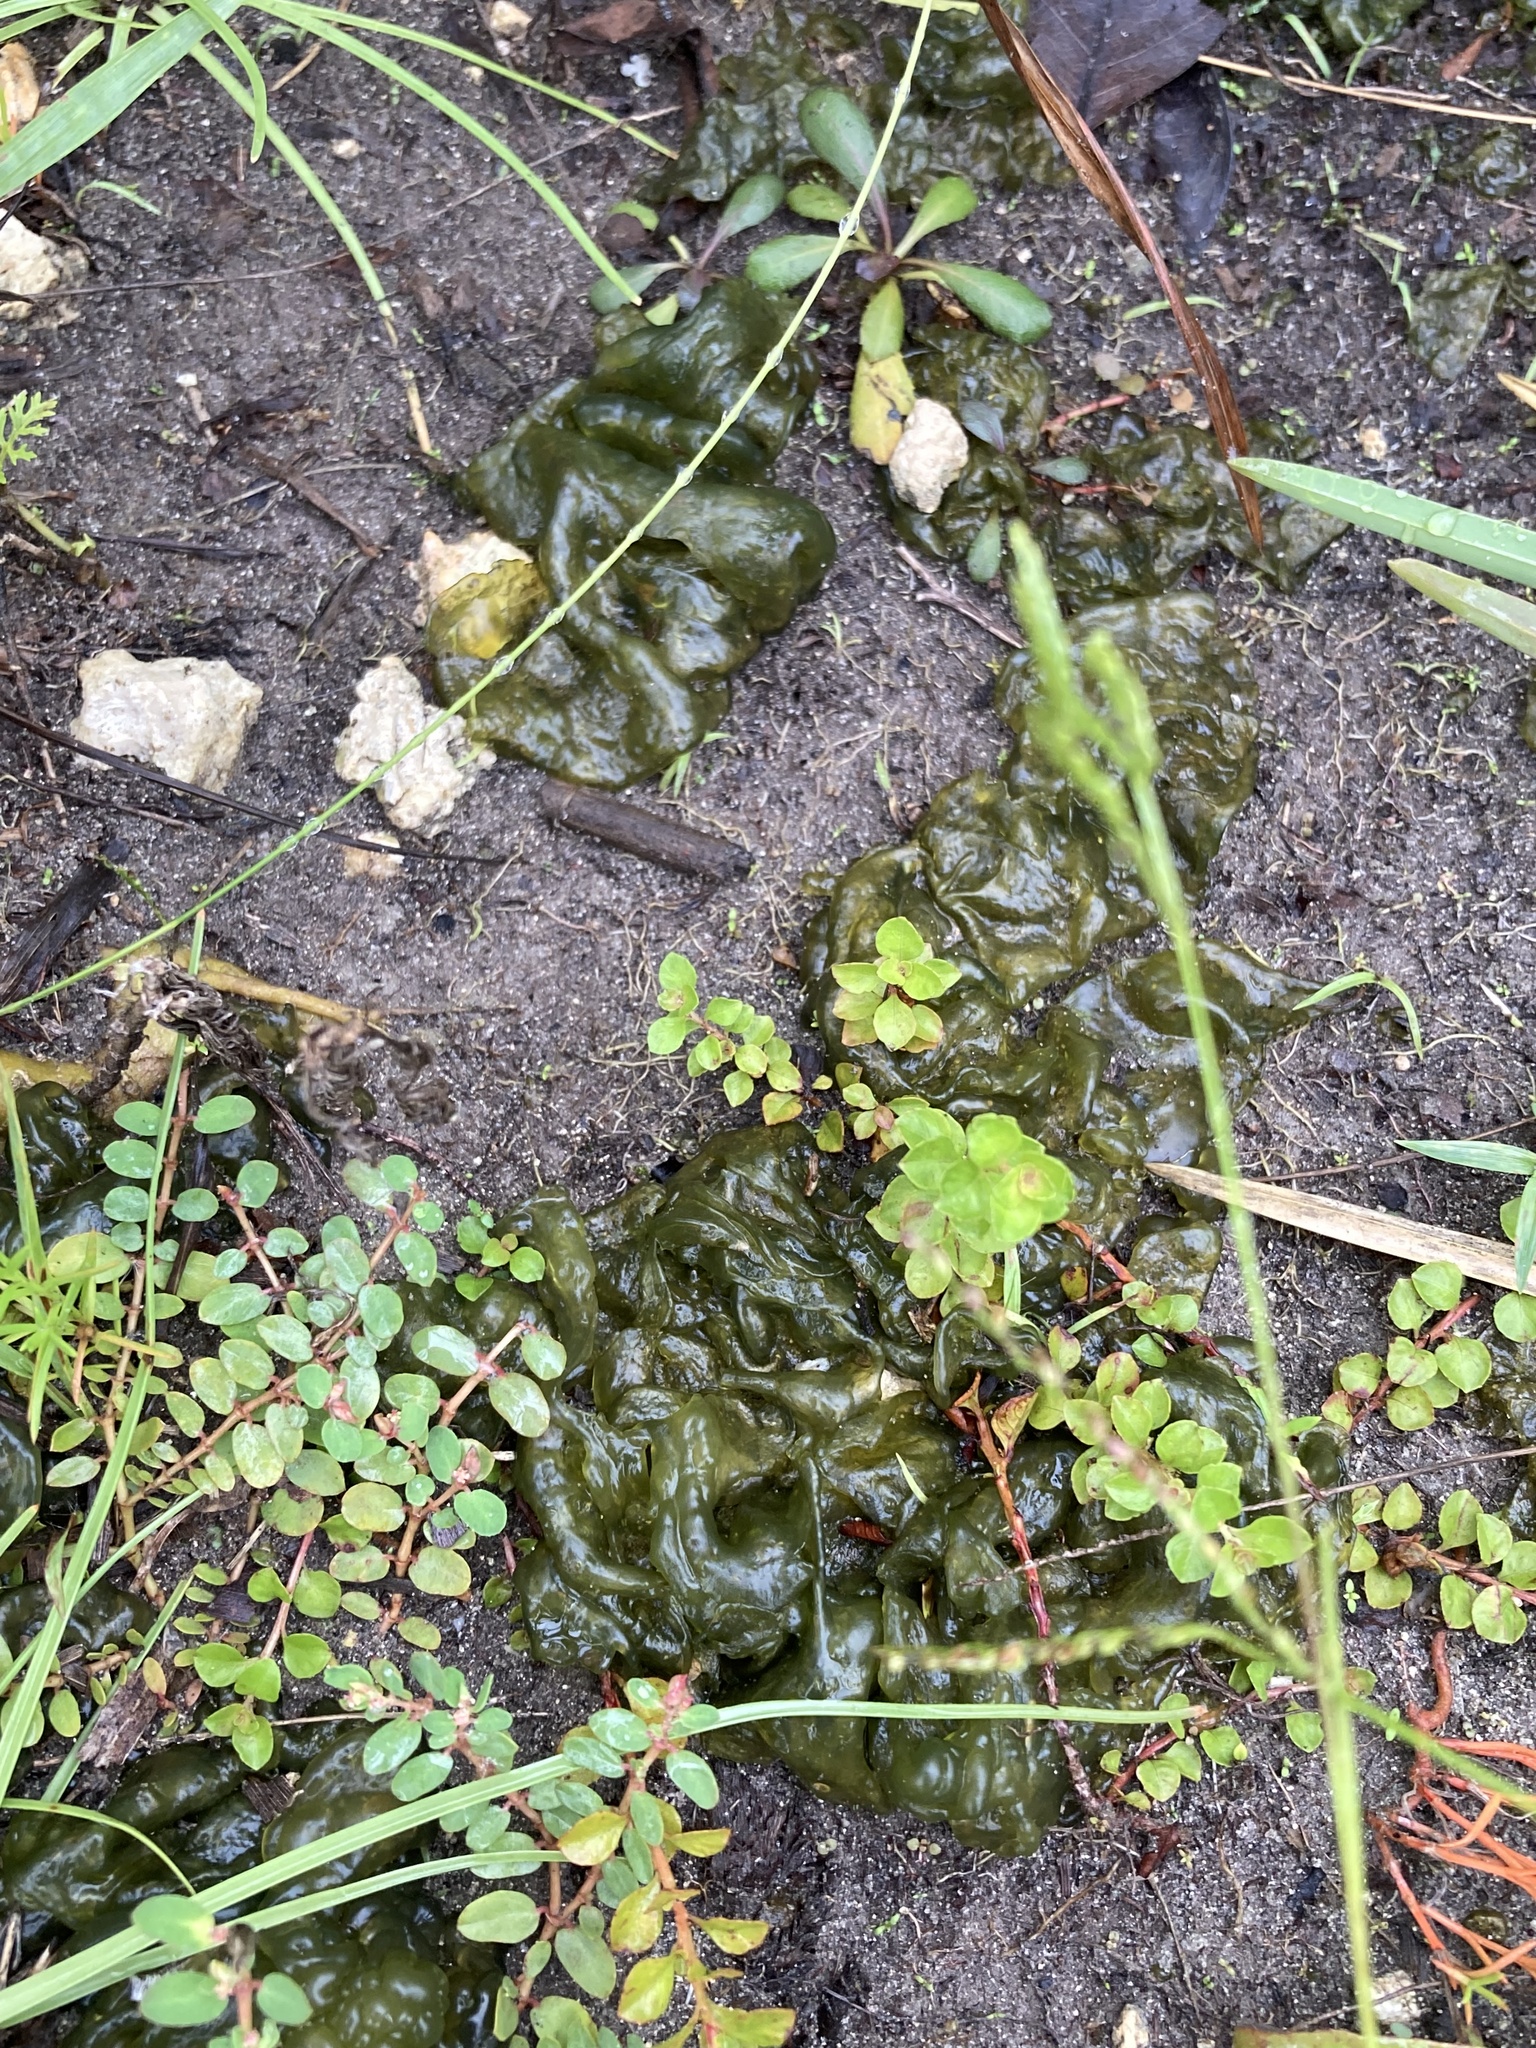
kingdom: Bacteria
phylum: Cyanobacteria
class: Cyanobacteriia
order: Cyanobacteriales
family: Nostocaceae
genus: Nostoc
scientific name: Nostoc commune
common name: Star jelly
